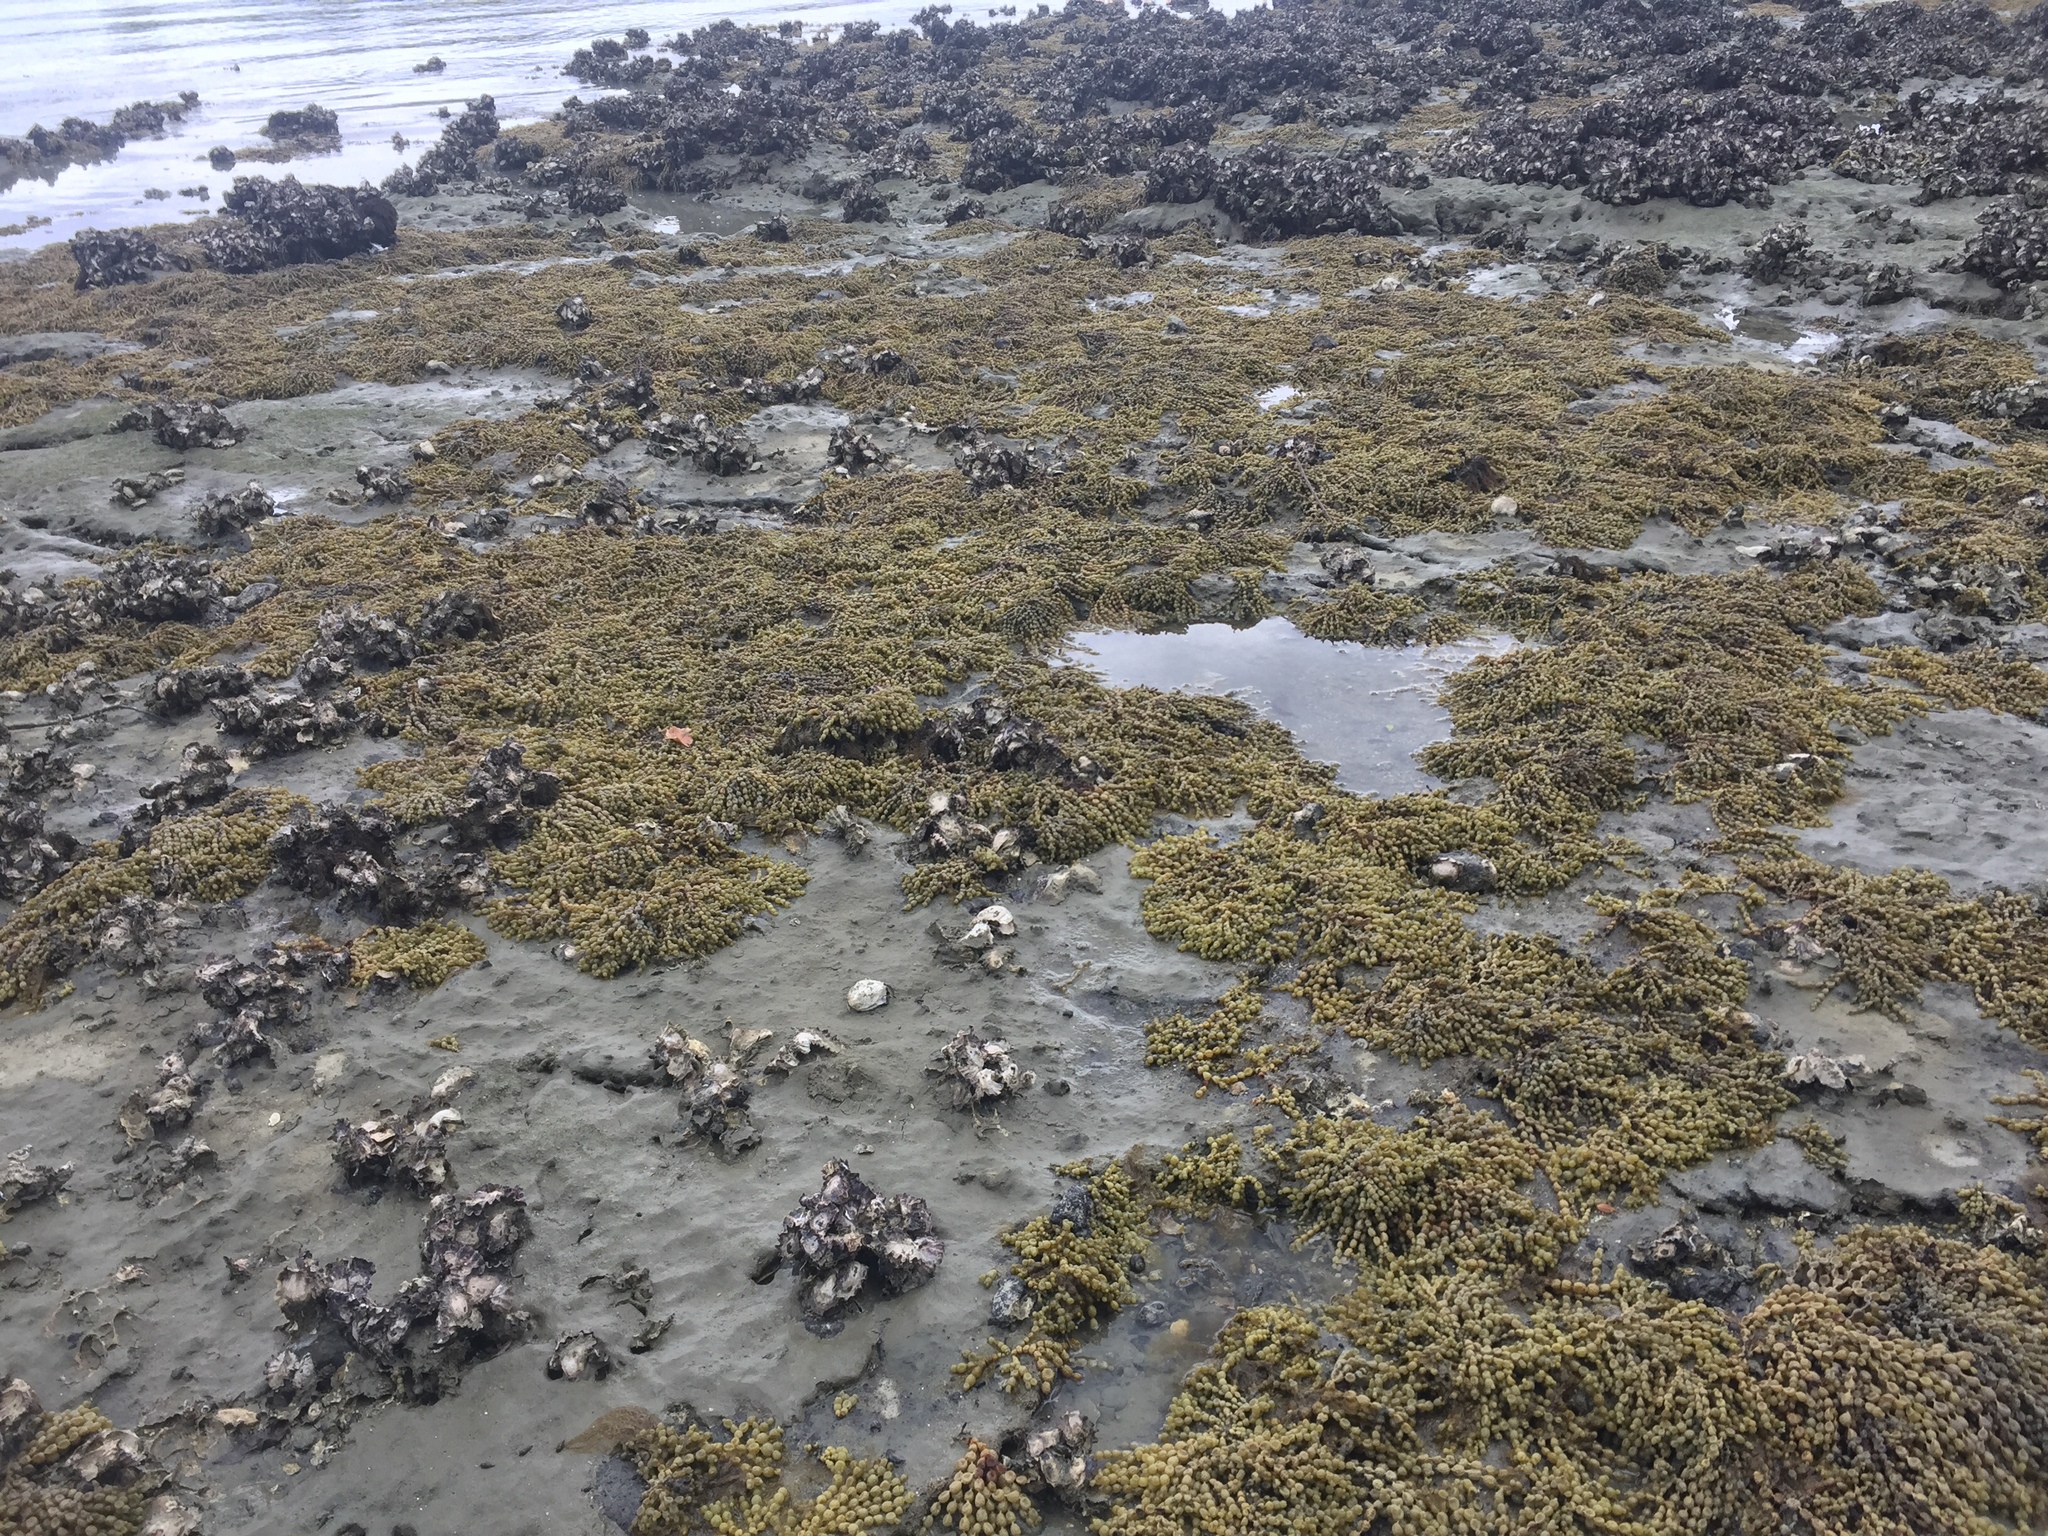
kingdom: Chromista
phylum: Ochrophyta
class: Phaeophyceae
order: Fucales
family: Hormosiraceae
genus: Hormosira
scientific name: Hormosira banksii
